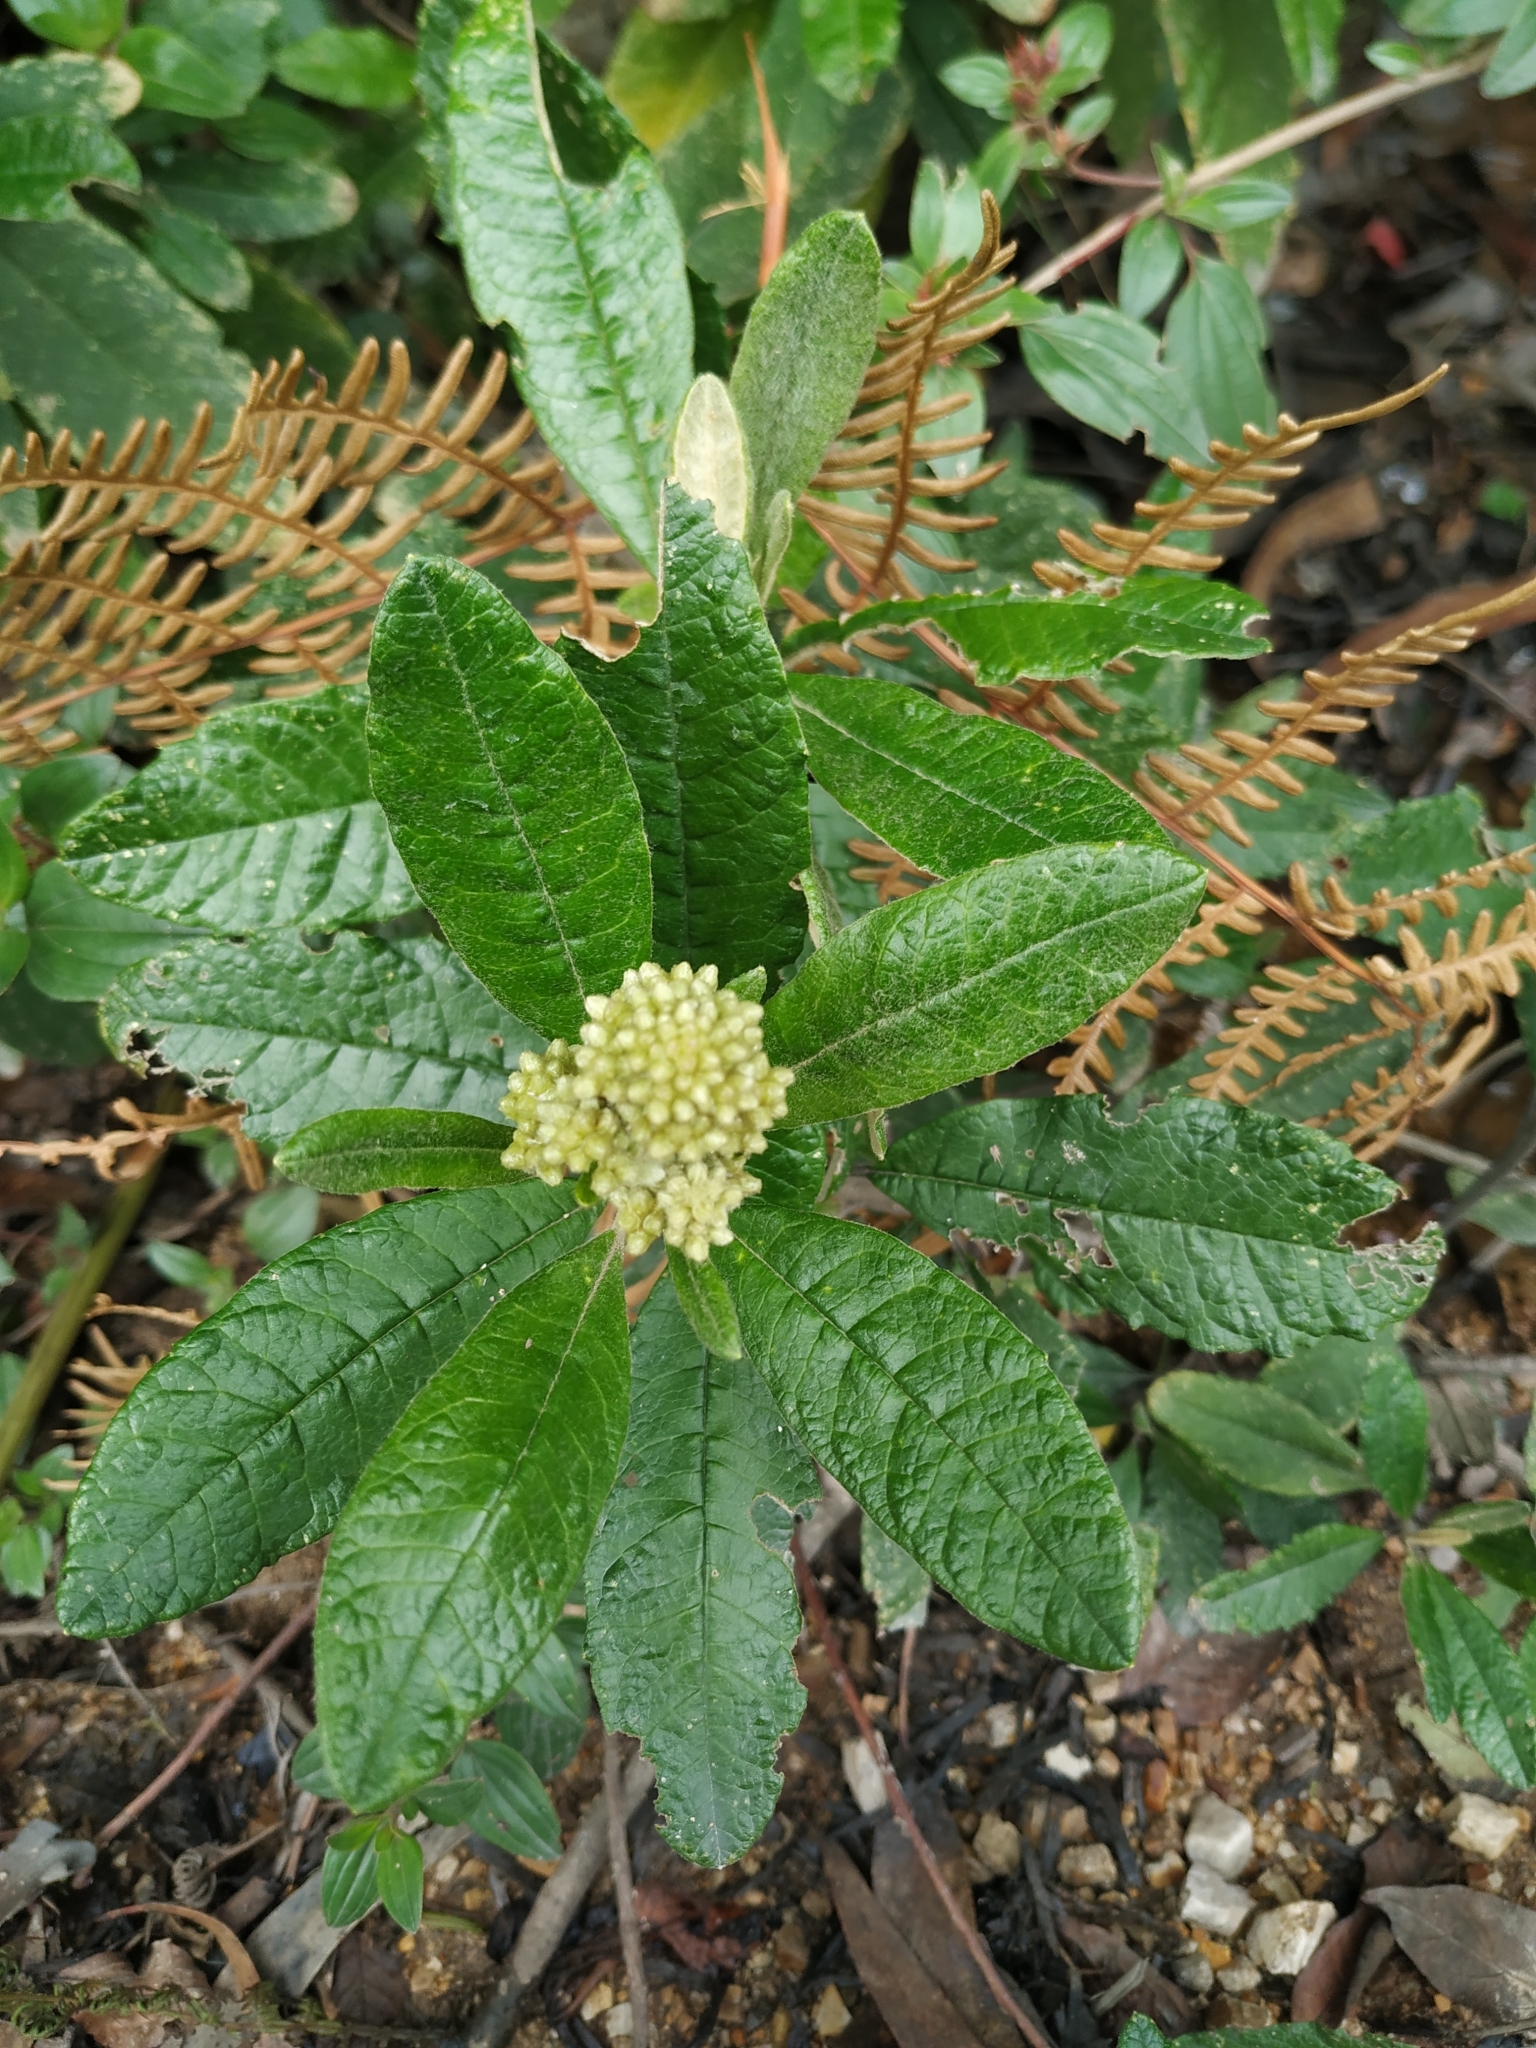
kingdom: Plantae
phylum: Tracheophyta
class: Magnoliopsida
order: Asterales
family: Asteraceae
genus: Linochilus
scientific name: Linochilus tenuifolius
